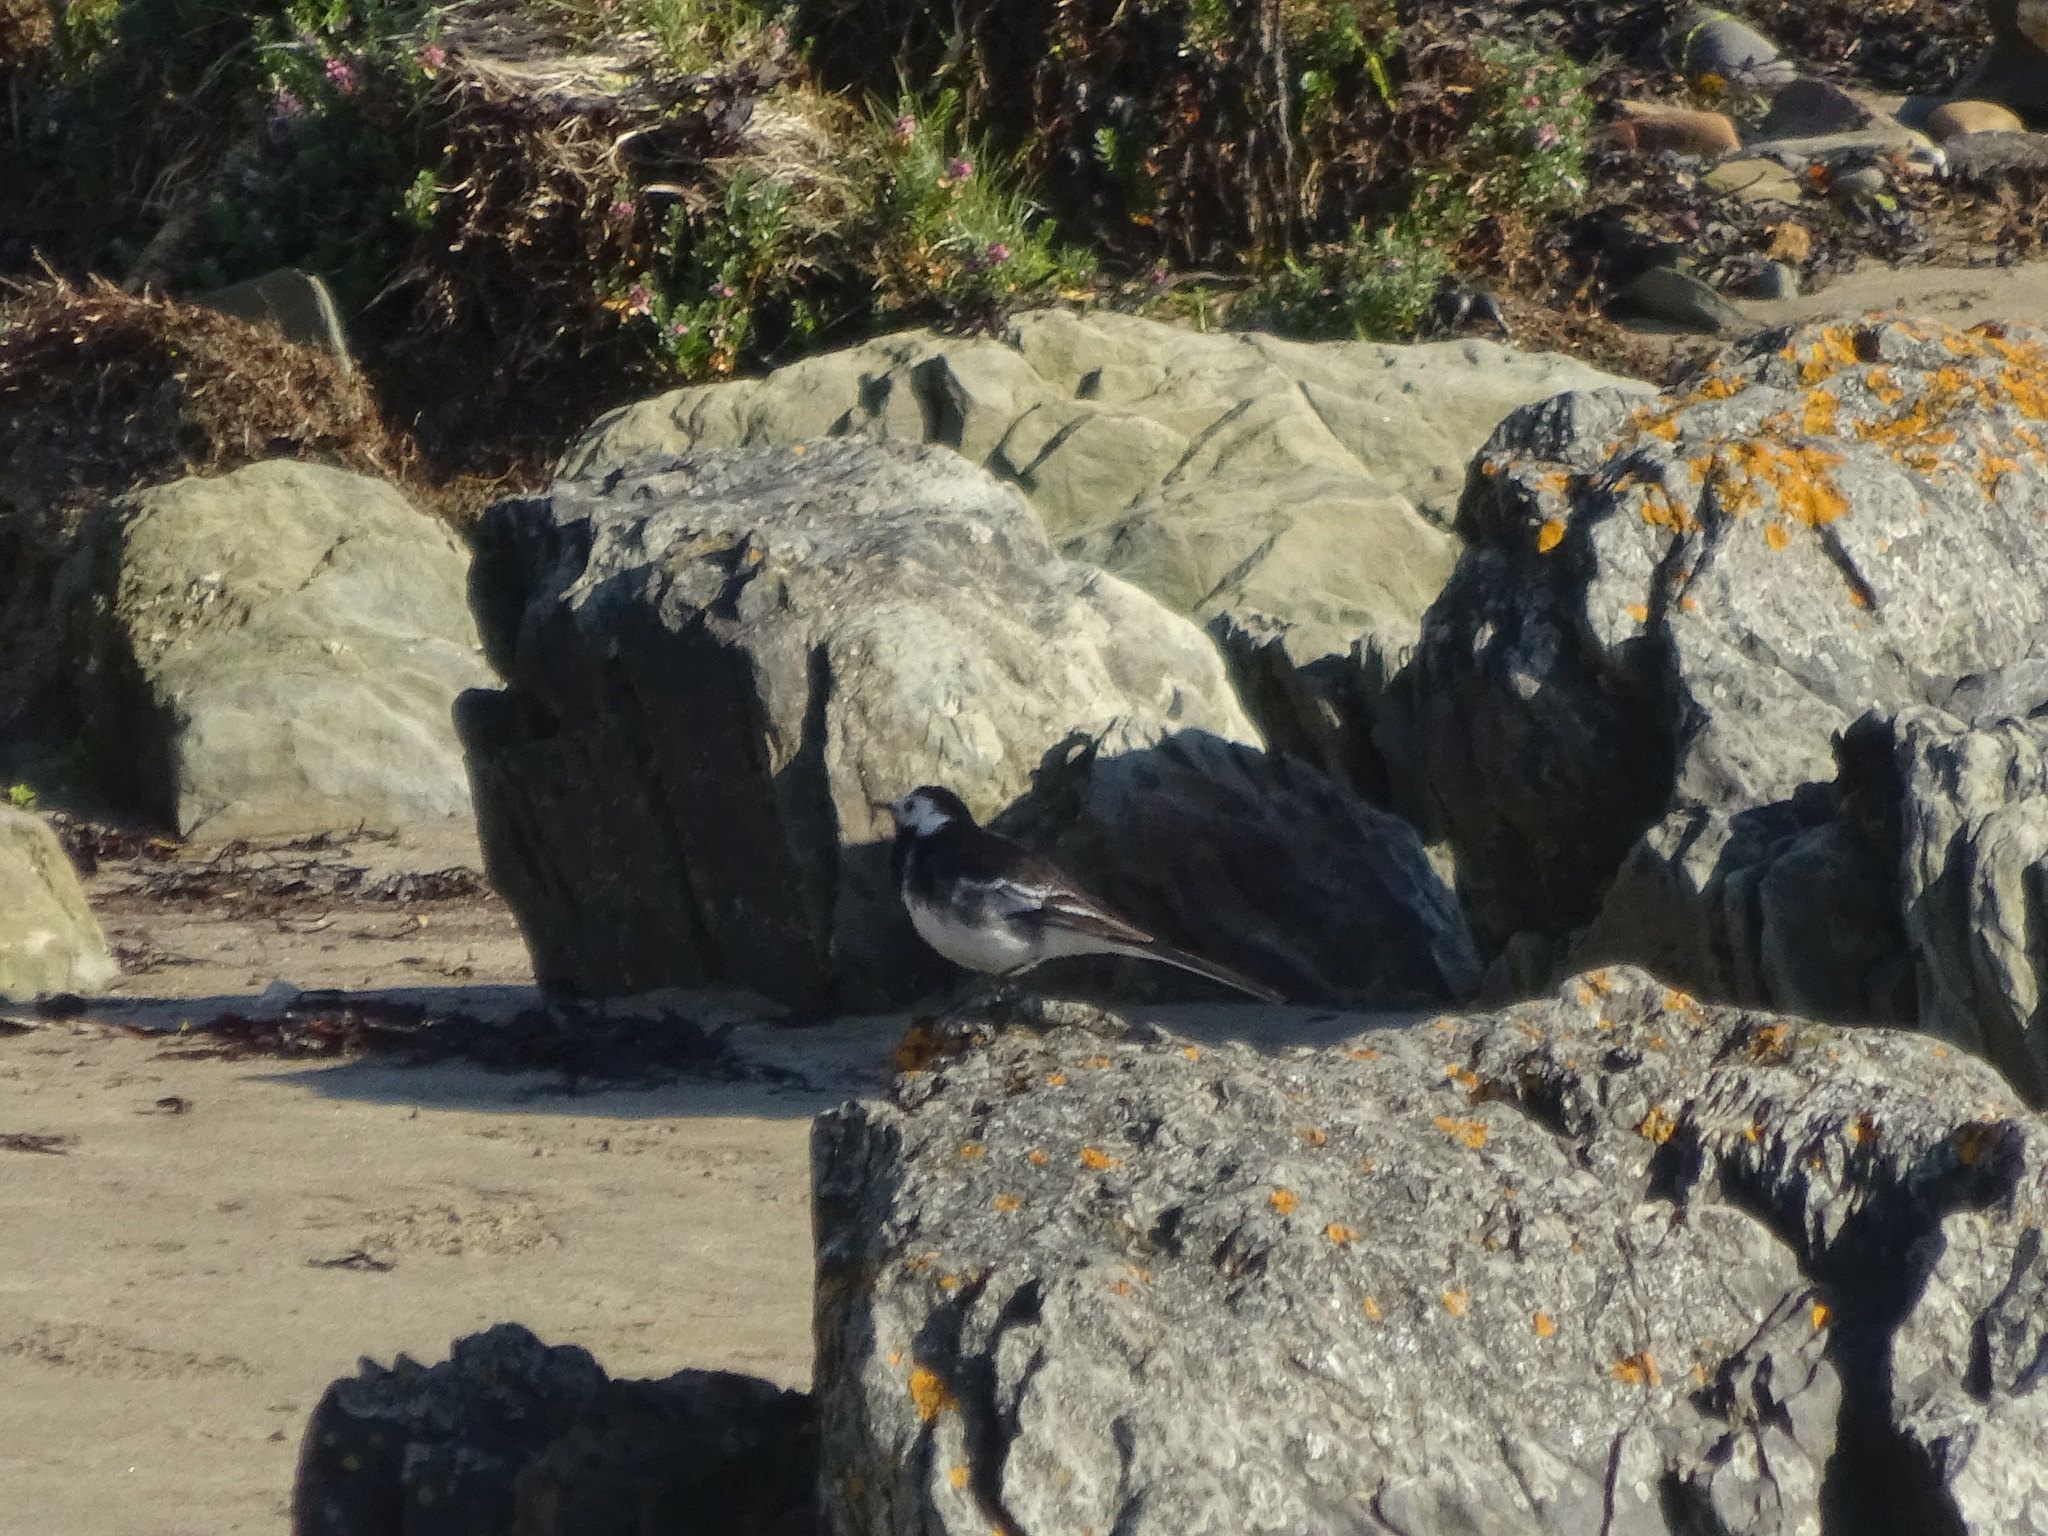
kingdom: Animalia
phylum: Chordata
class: Aves
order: Passeriformes
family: Motacillidae
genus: Motacilla
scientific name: Motacilla alba
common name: White wagtail
